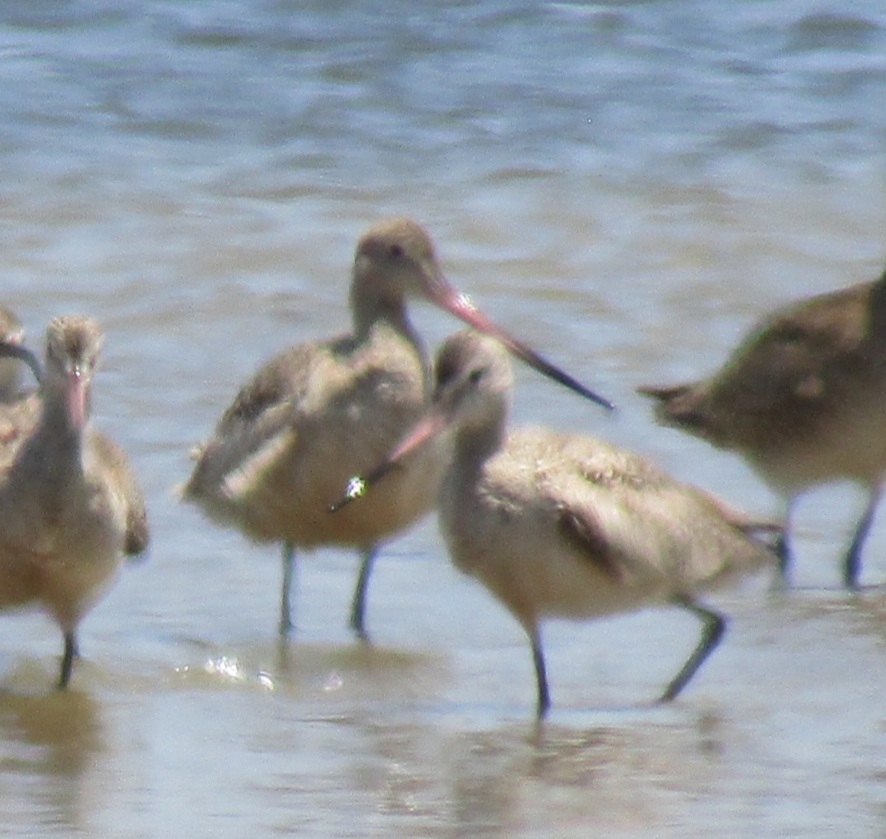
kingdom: Animalia
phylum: Chordata
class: Aves
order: Charadriiformes
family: Scolopacidae
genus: Limosa
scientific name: Limosa fedoa
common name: Marbled godwit
